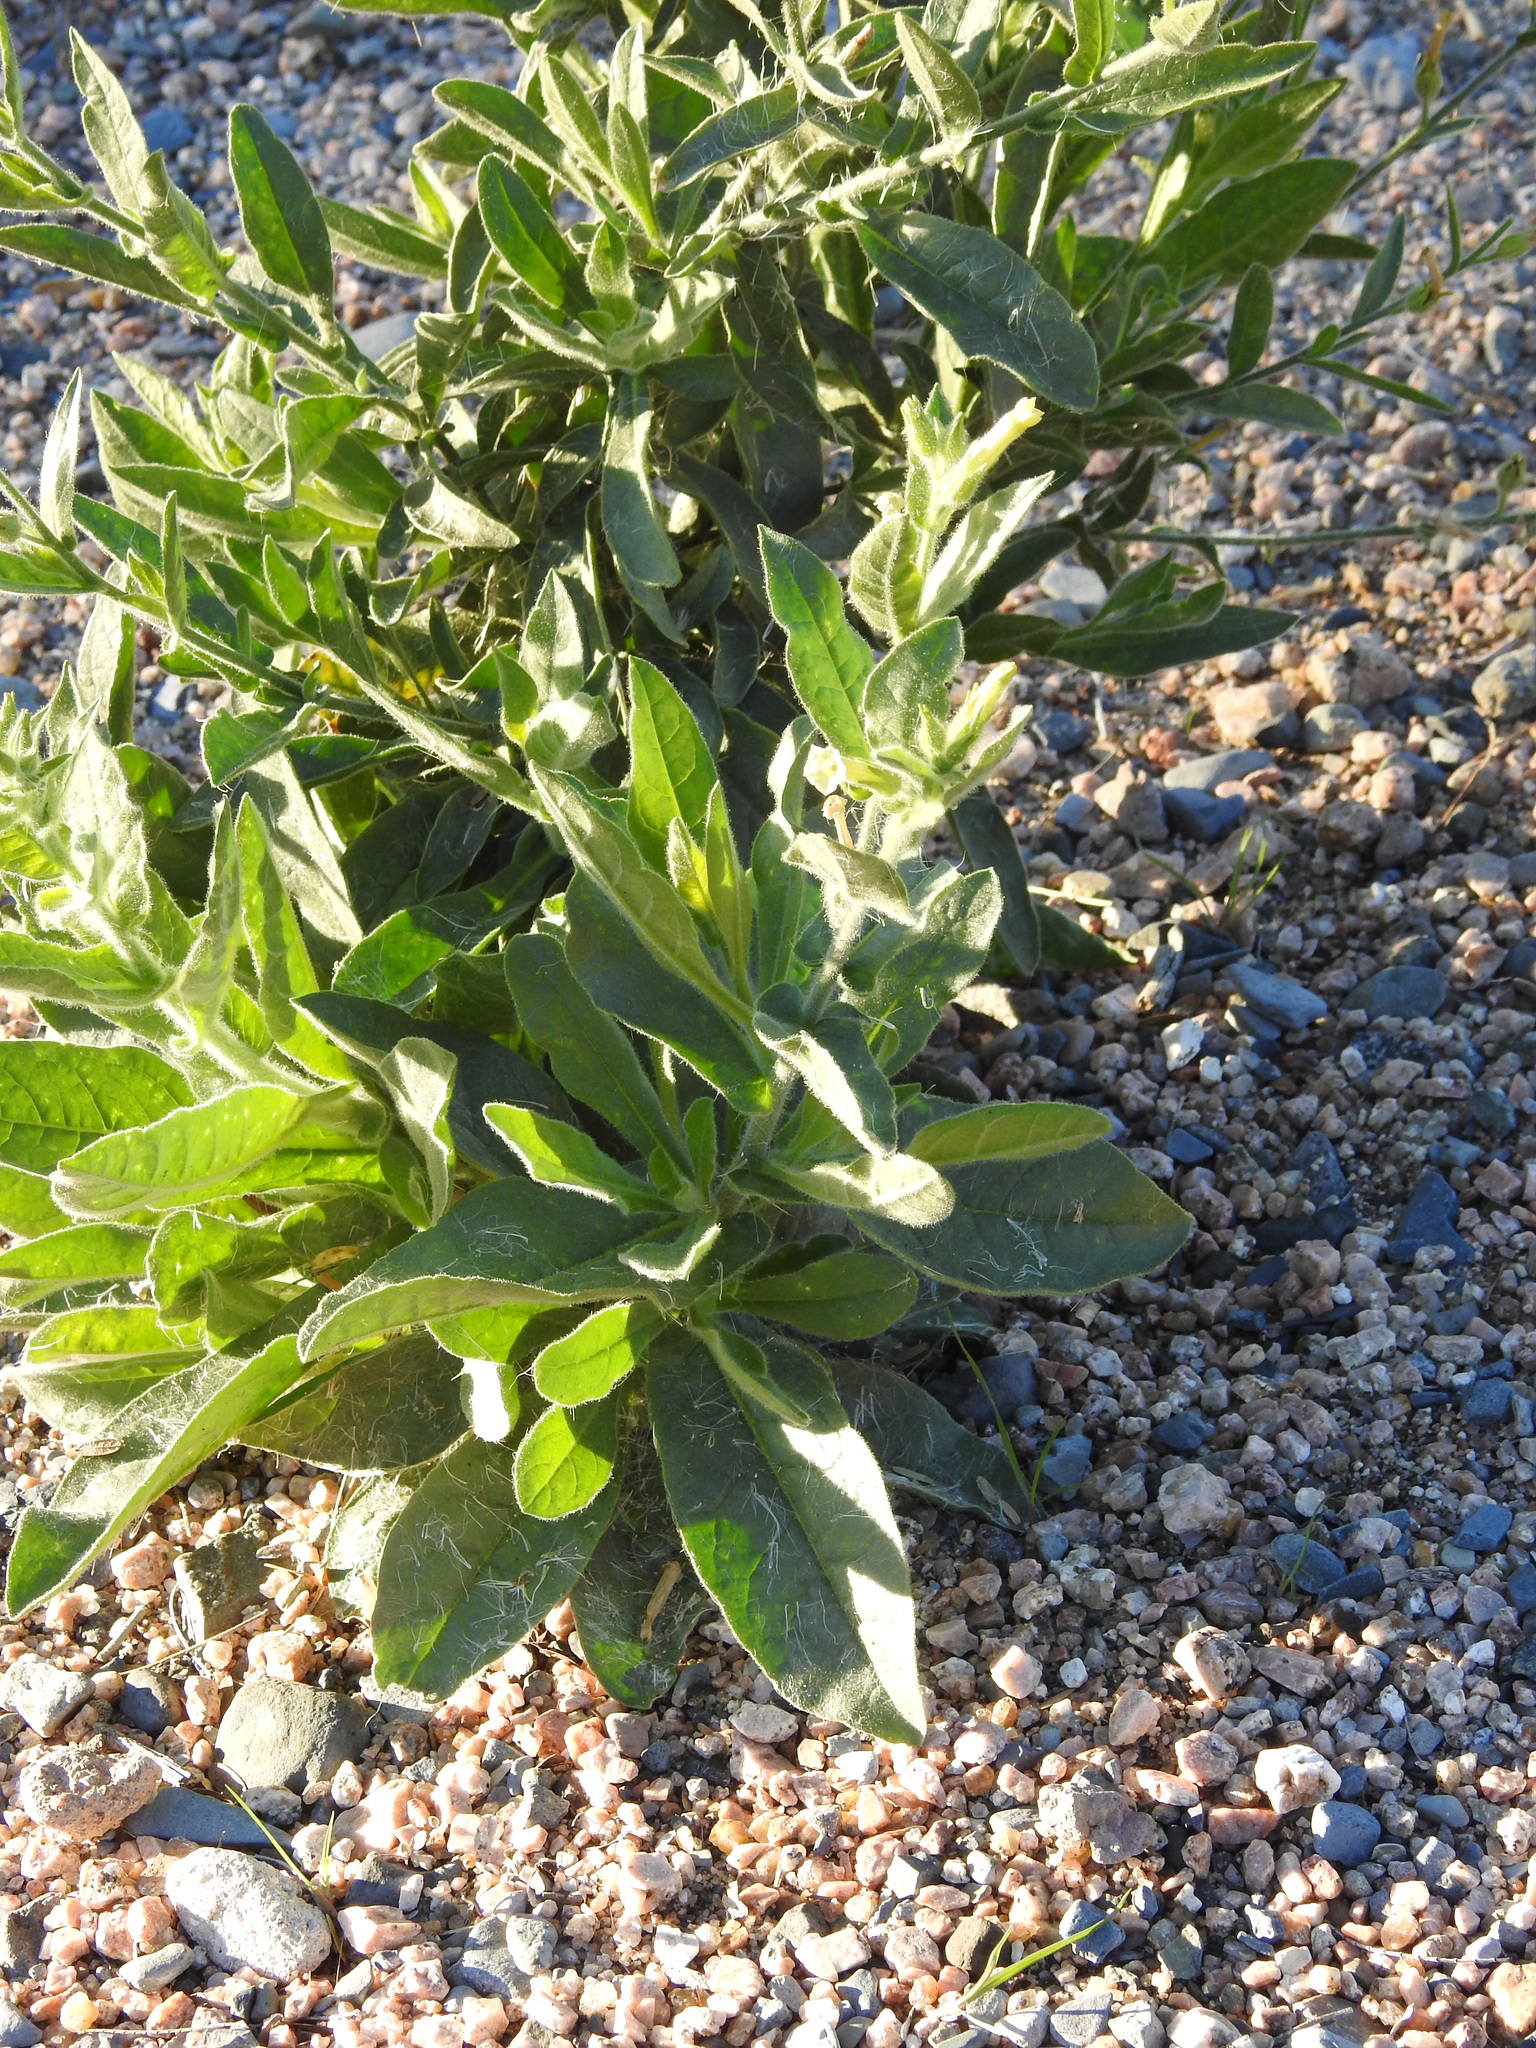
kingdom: Plantae
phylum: Tracheophyta
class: Magnoliopsida
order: Solanales
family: Solanaceae
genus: Nicotiana
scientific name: Nicotiana obtusifolia
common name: Desert tobacco
